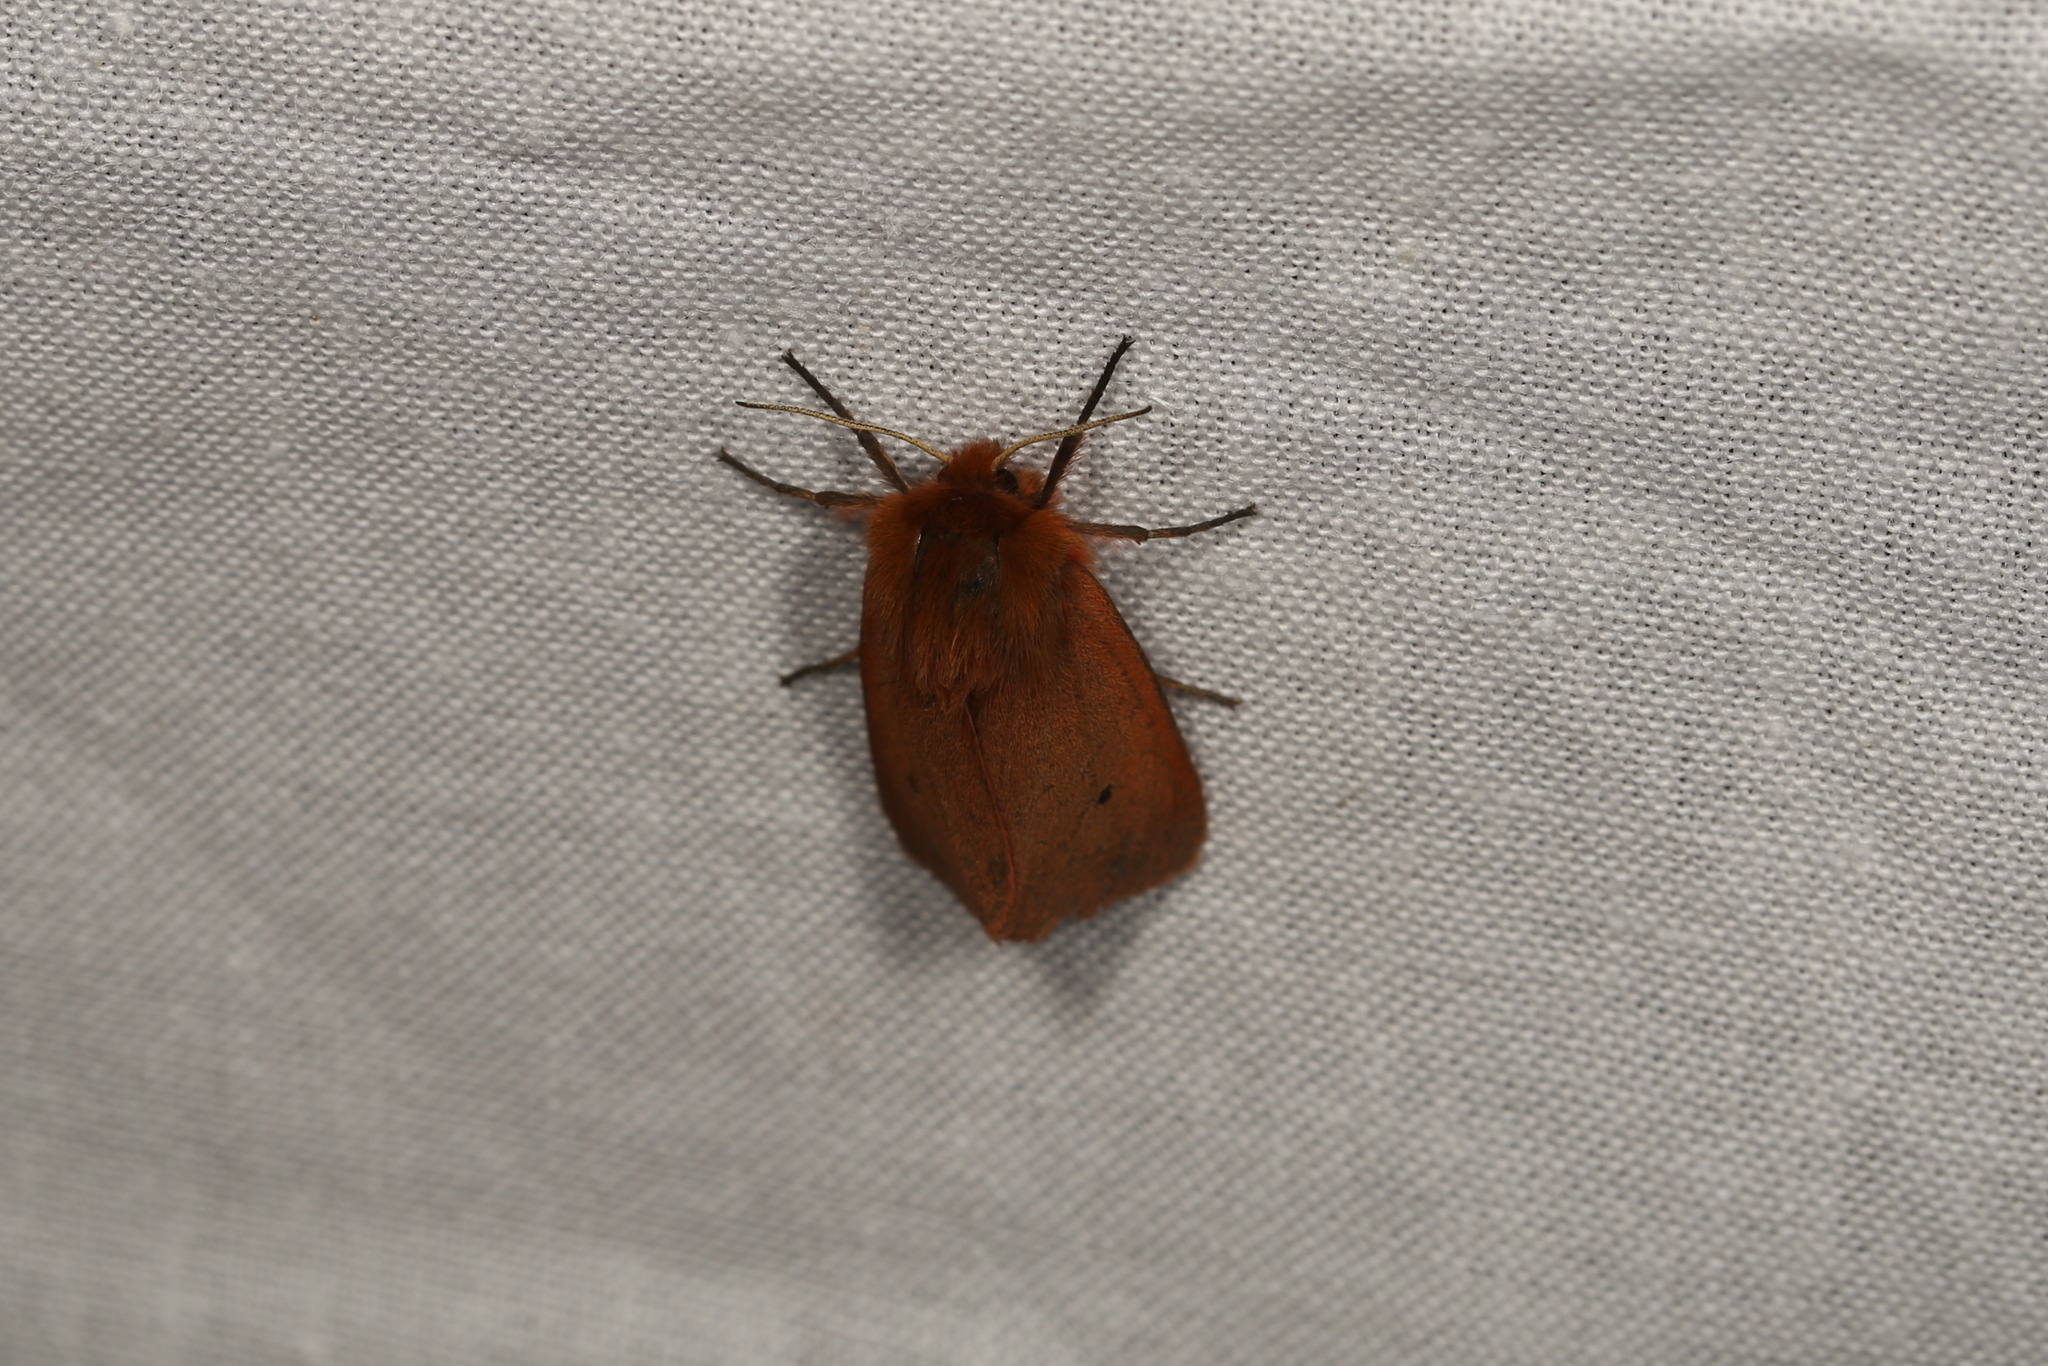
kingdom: Animalia
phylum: Arthropoda
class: Insecta
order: Lepidoptera
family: Erebidae
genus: Phragmatobia
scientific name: Phragmatobia fuliginosa
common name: Ruby tiger
